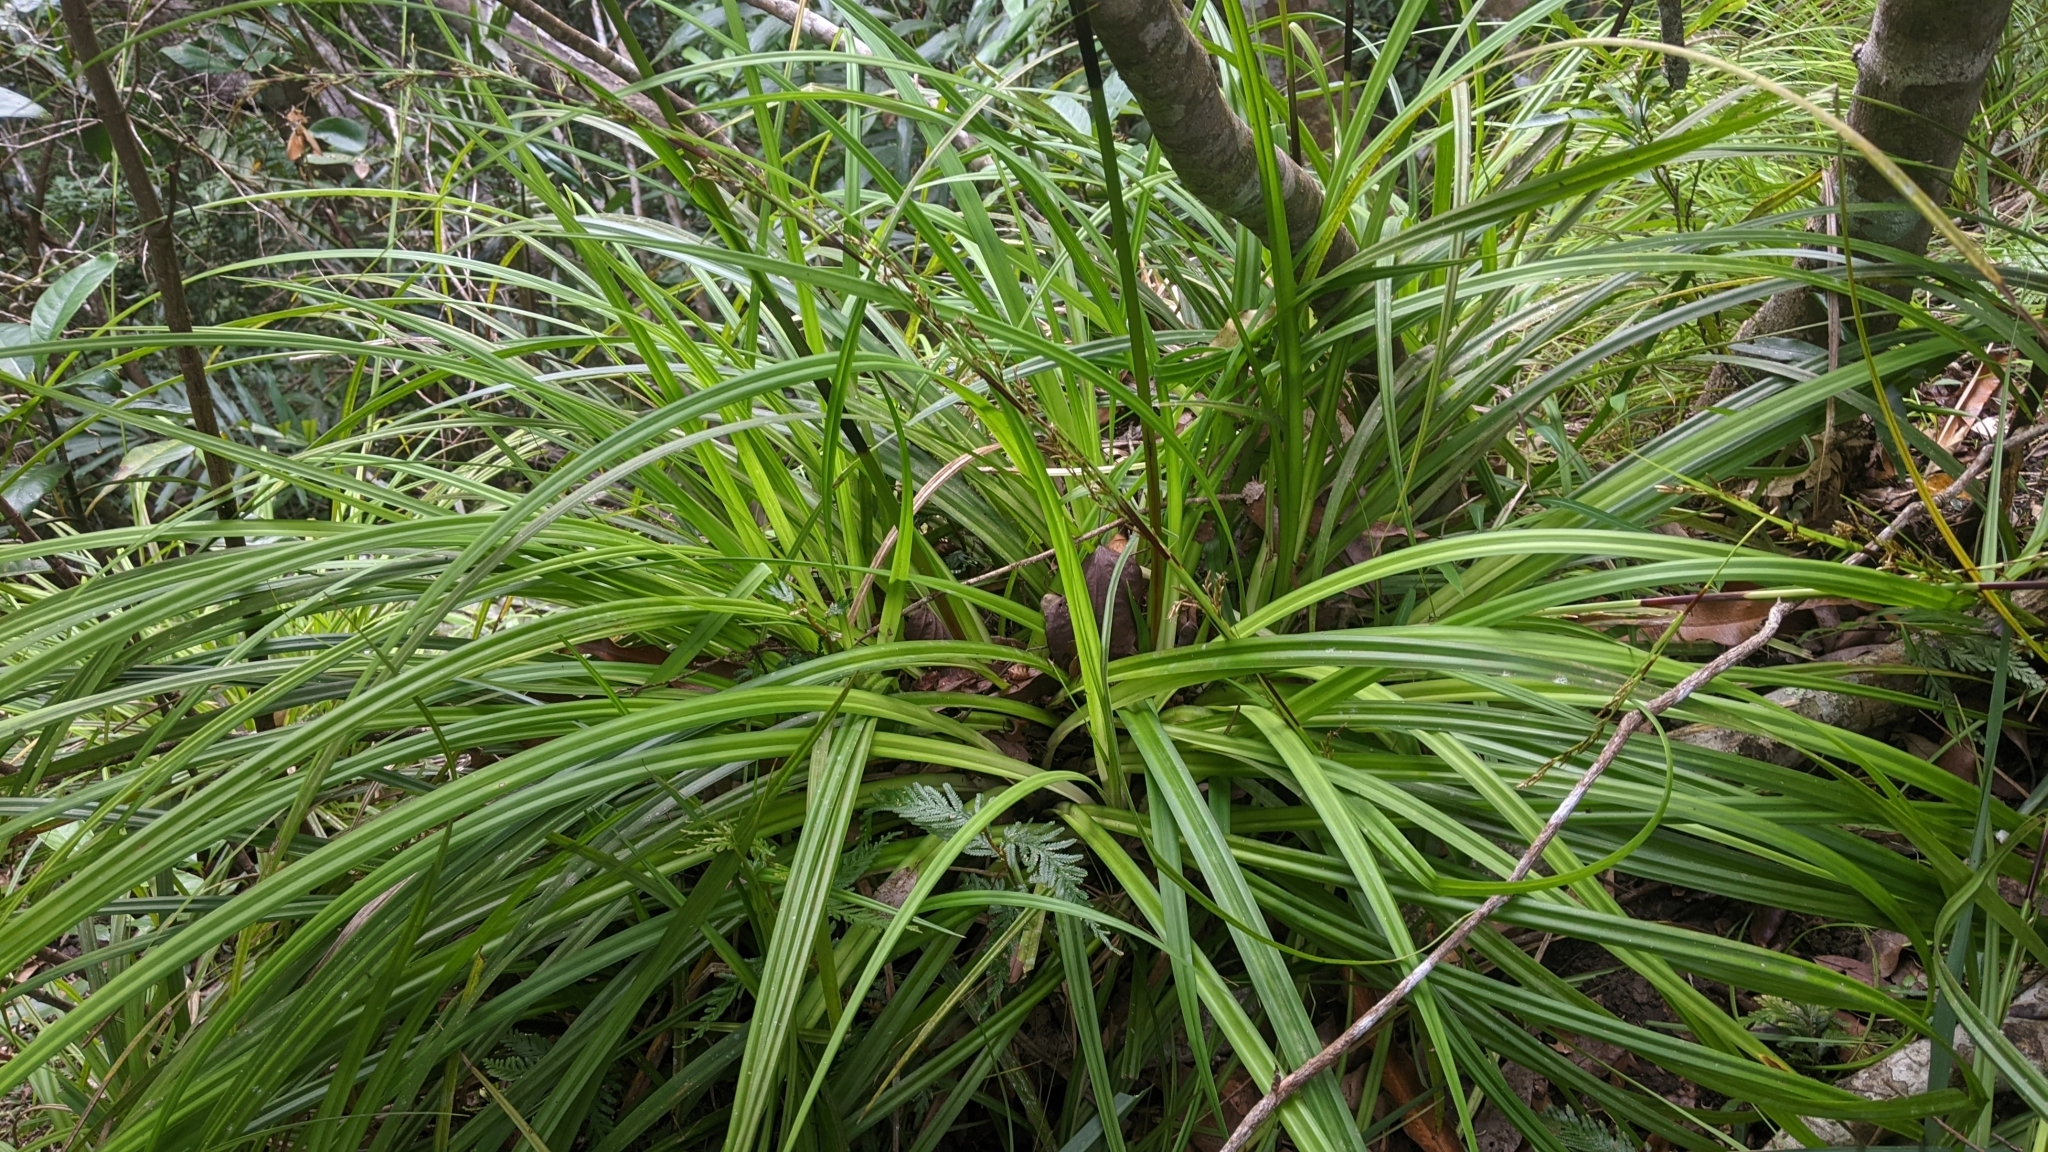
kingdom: Plantae
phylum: Tracheophyta
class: Liliopsida
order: Poales
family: Cyperaceae
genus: Carex
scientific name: Carex morii
